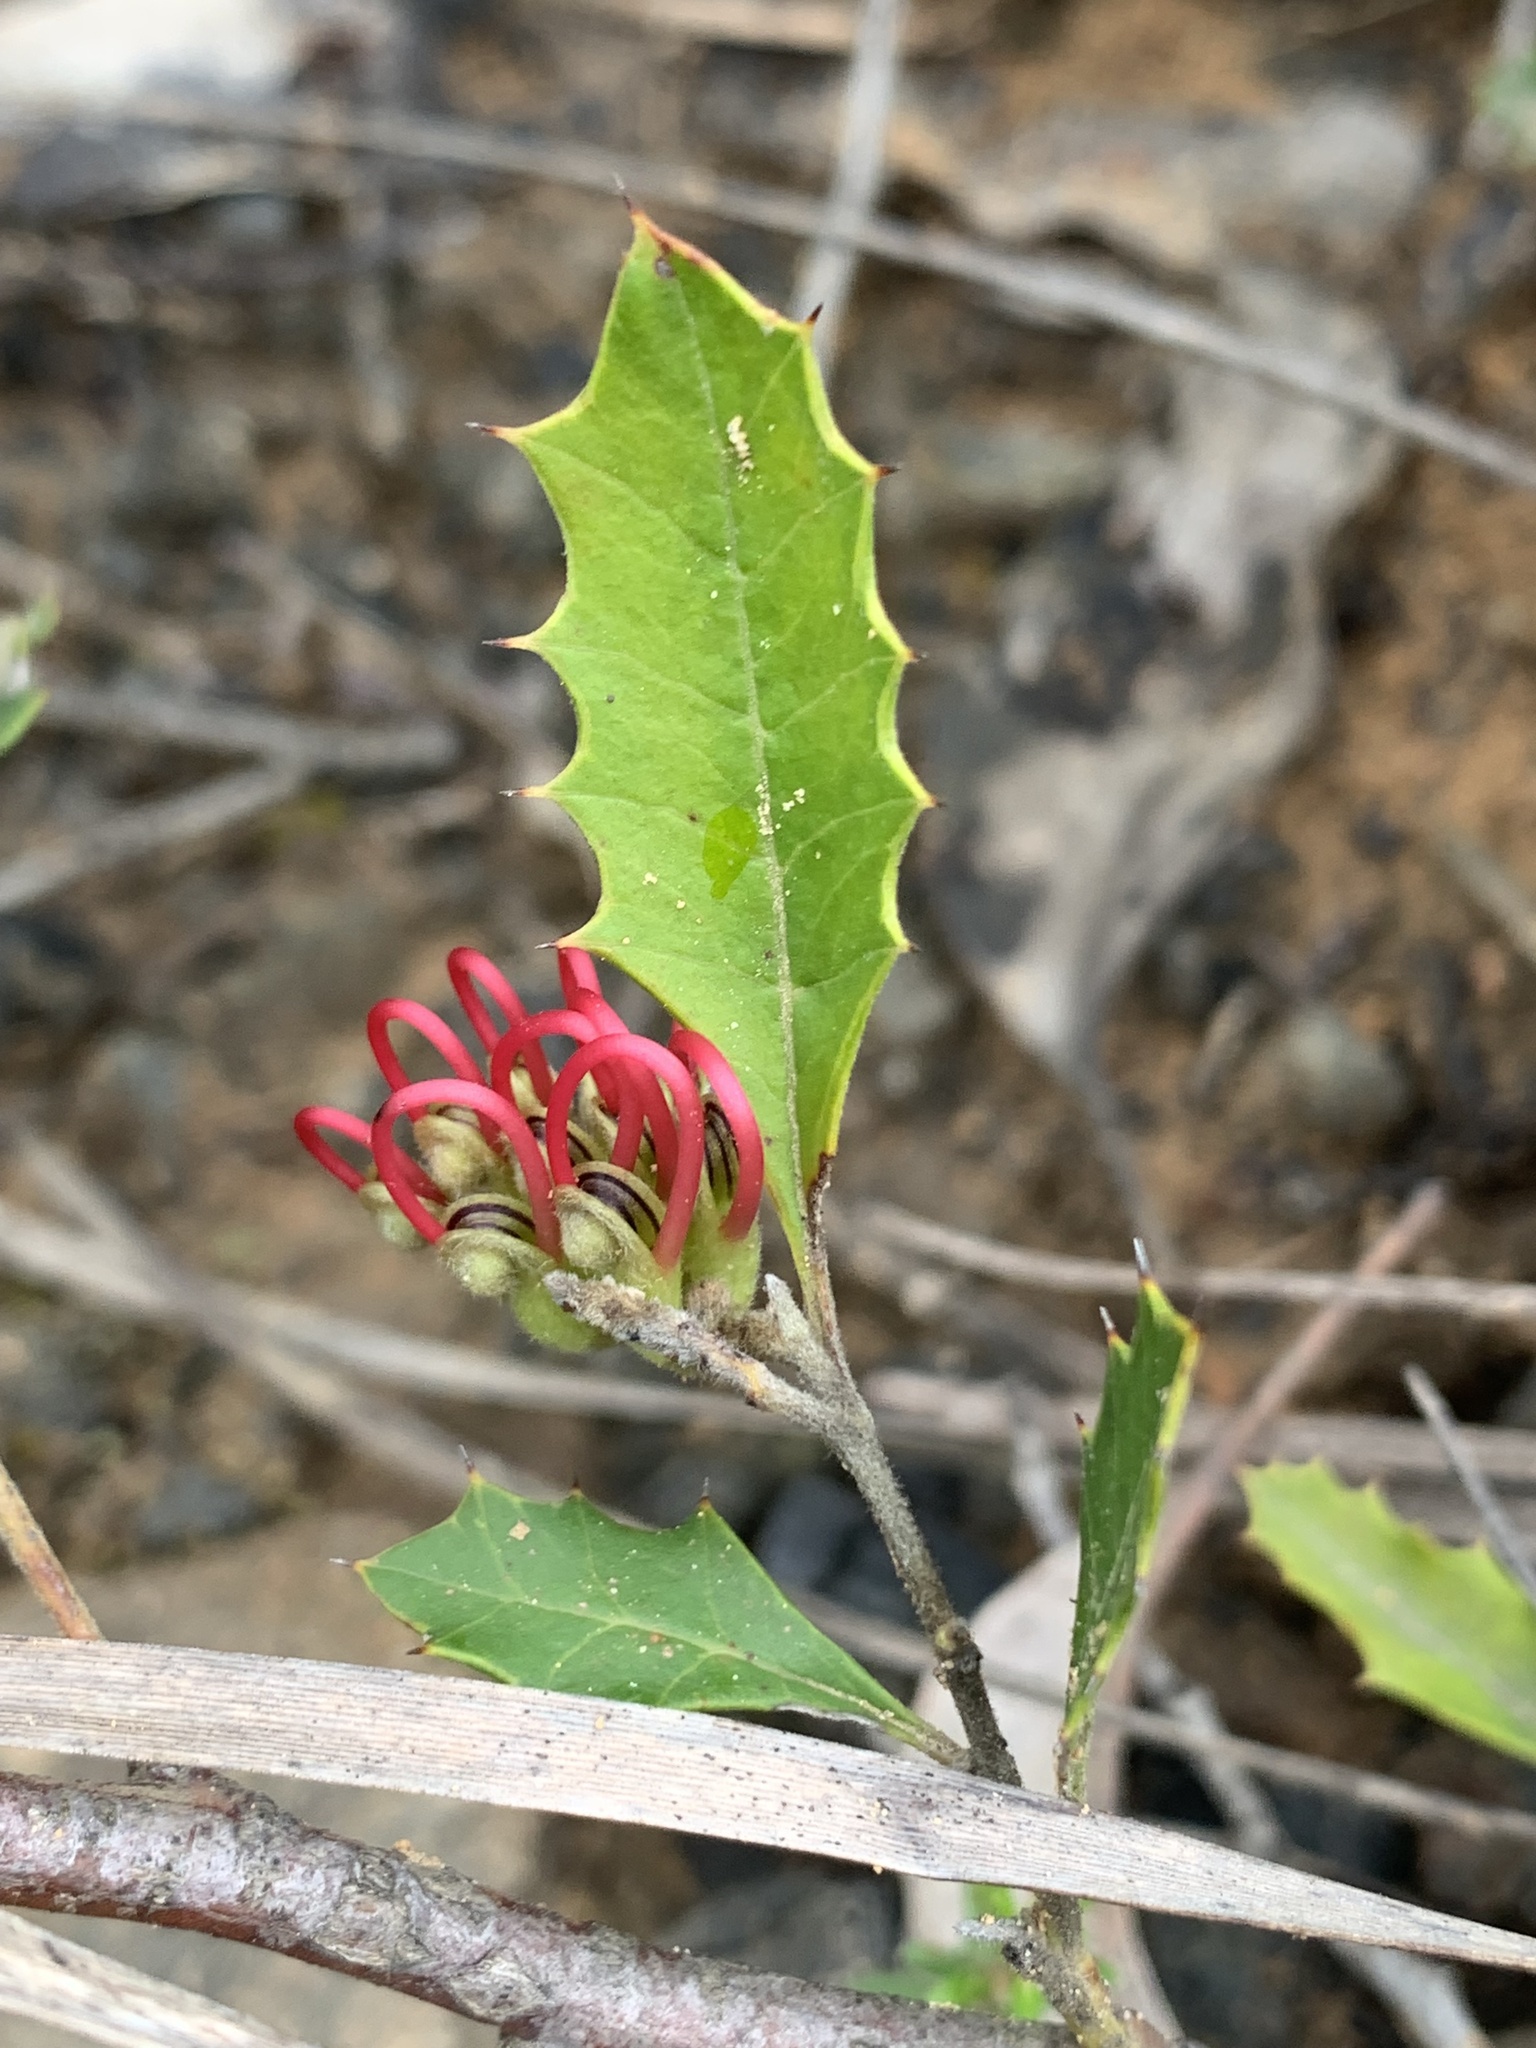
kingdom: Plantae
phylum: Tracheophyta
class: Magnoliopsida
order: Proteales
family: Proteaceae
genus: Grevillea
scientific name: Grevillea aquifolium
